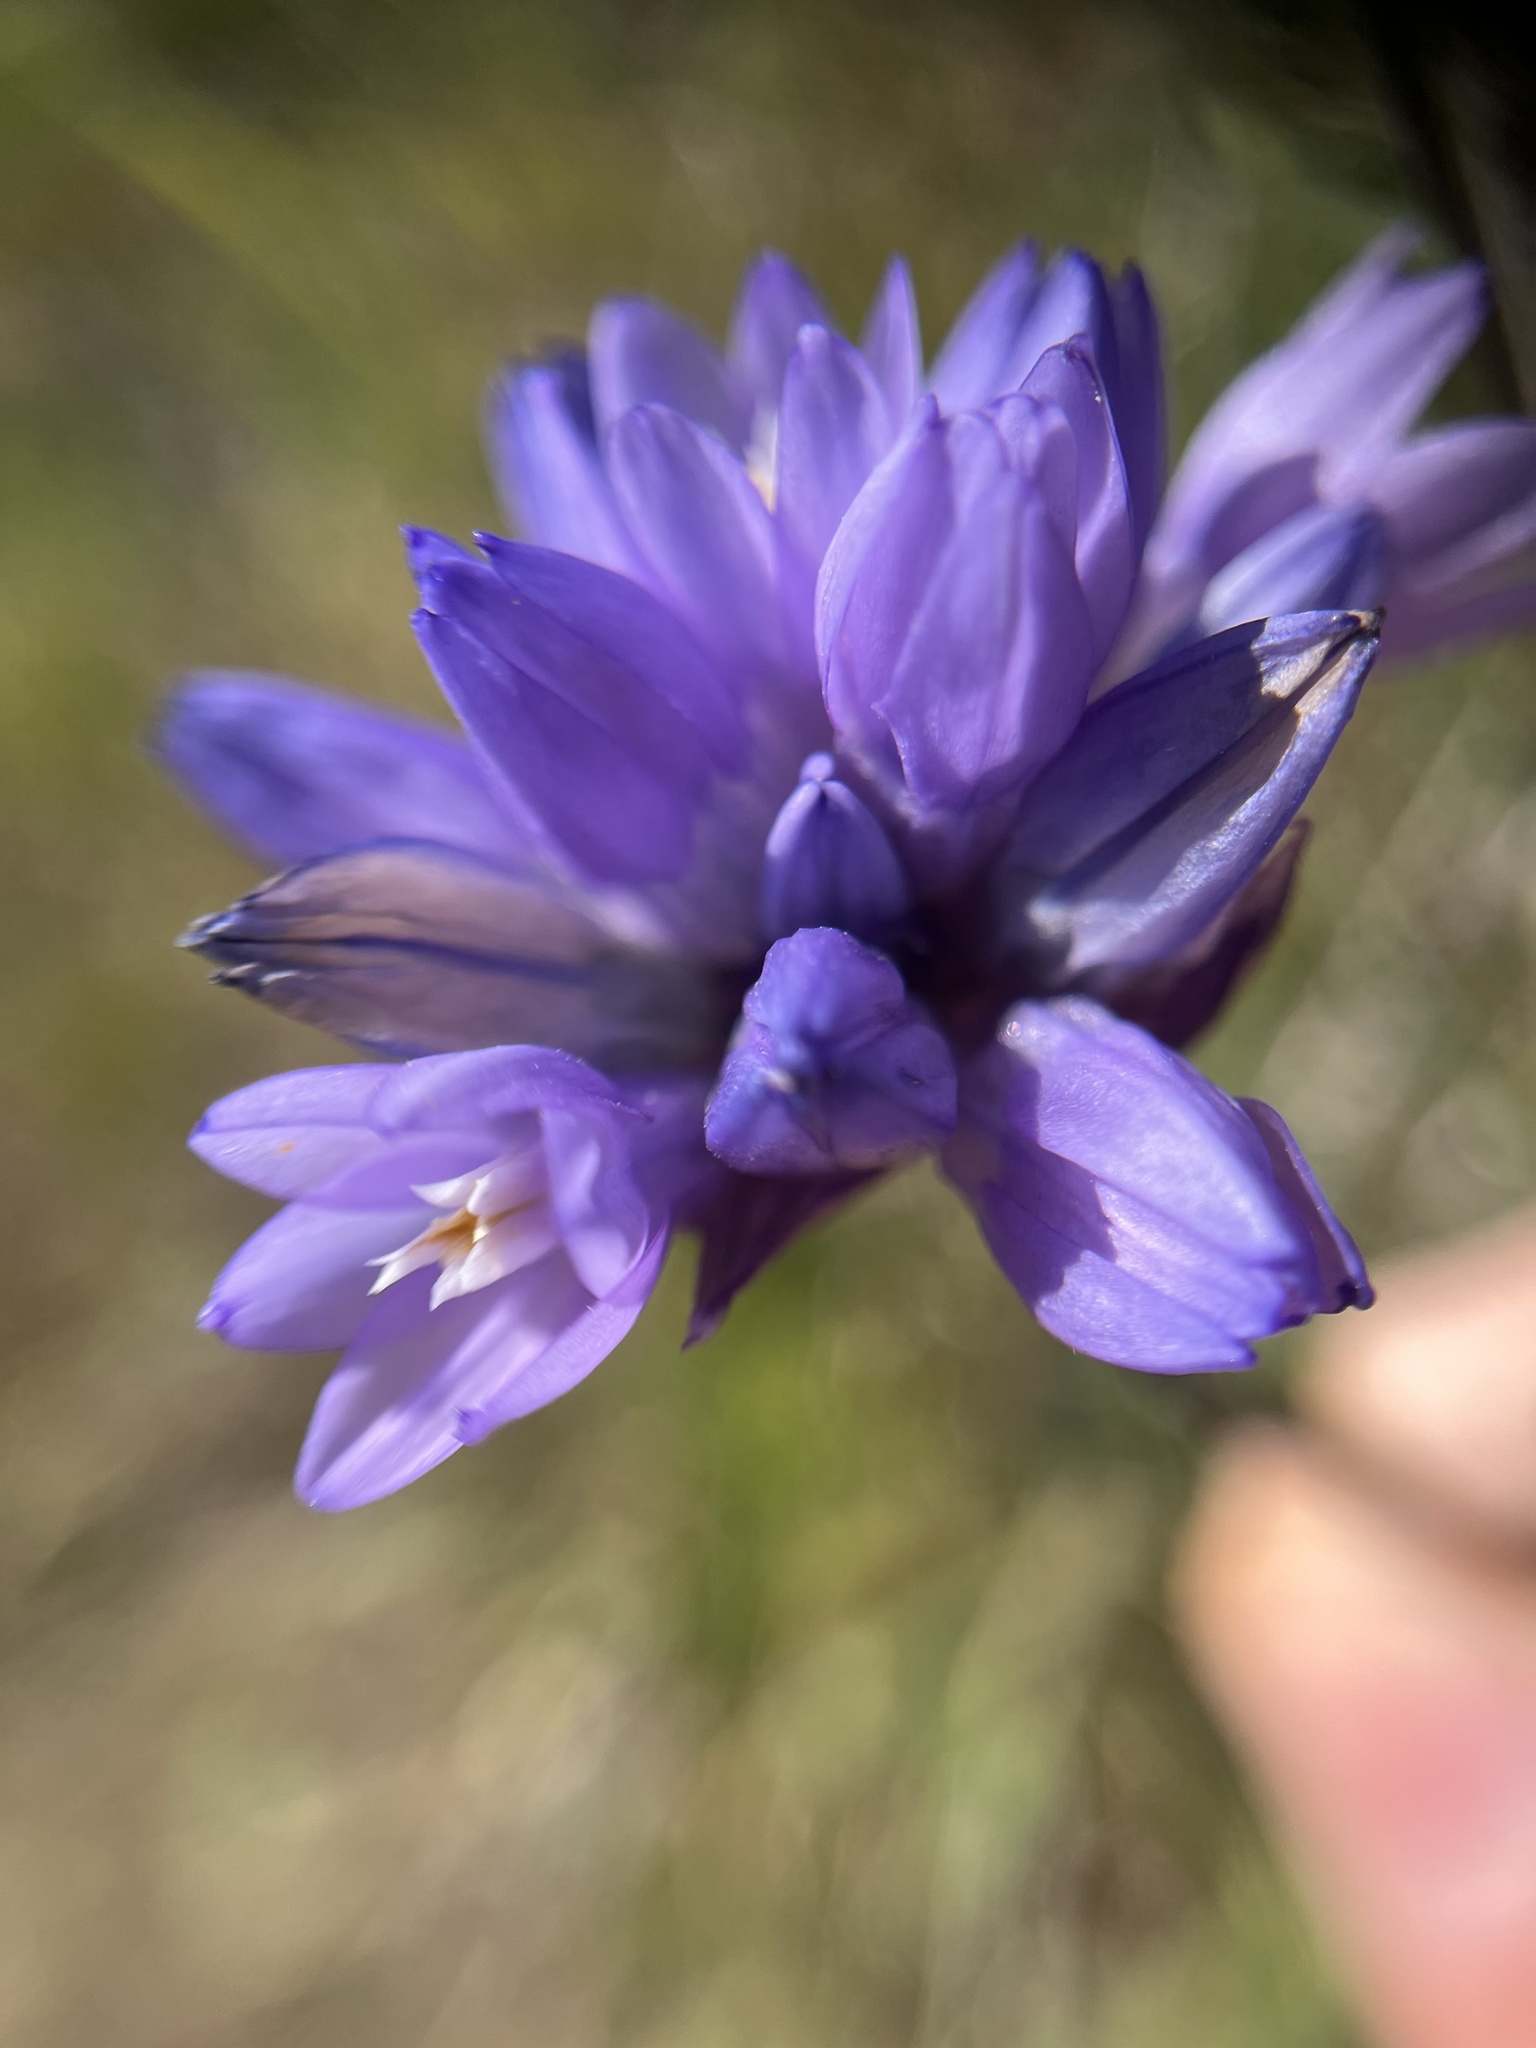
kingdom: Plantae
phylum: Tracheophyta
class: Liliopsida
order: Asparagales
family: Asparagaceae
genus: Dipterostemon
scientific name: Dipterostemon capitatus
